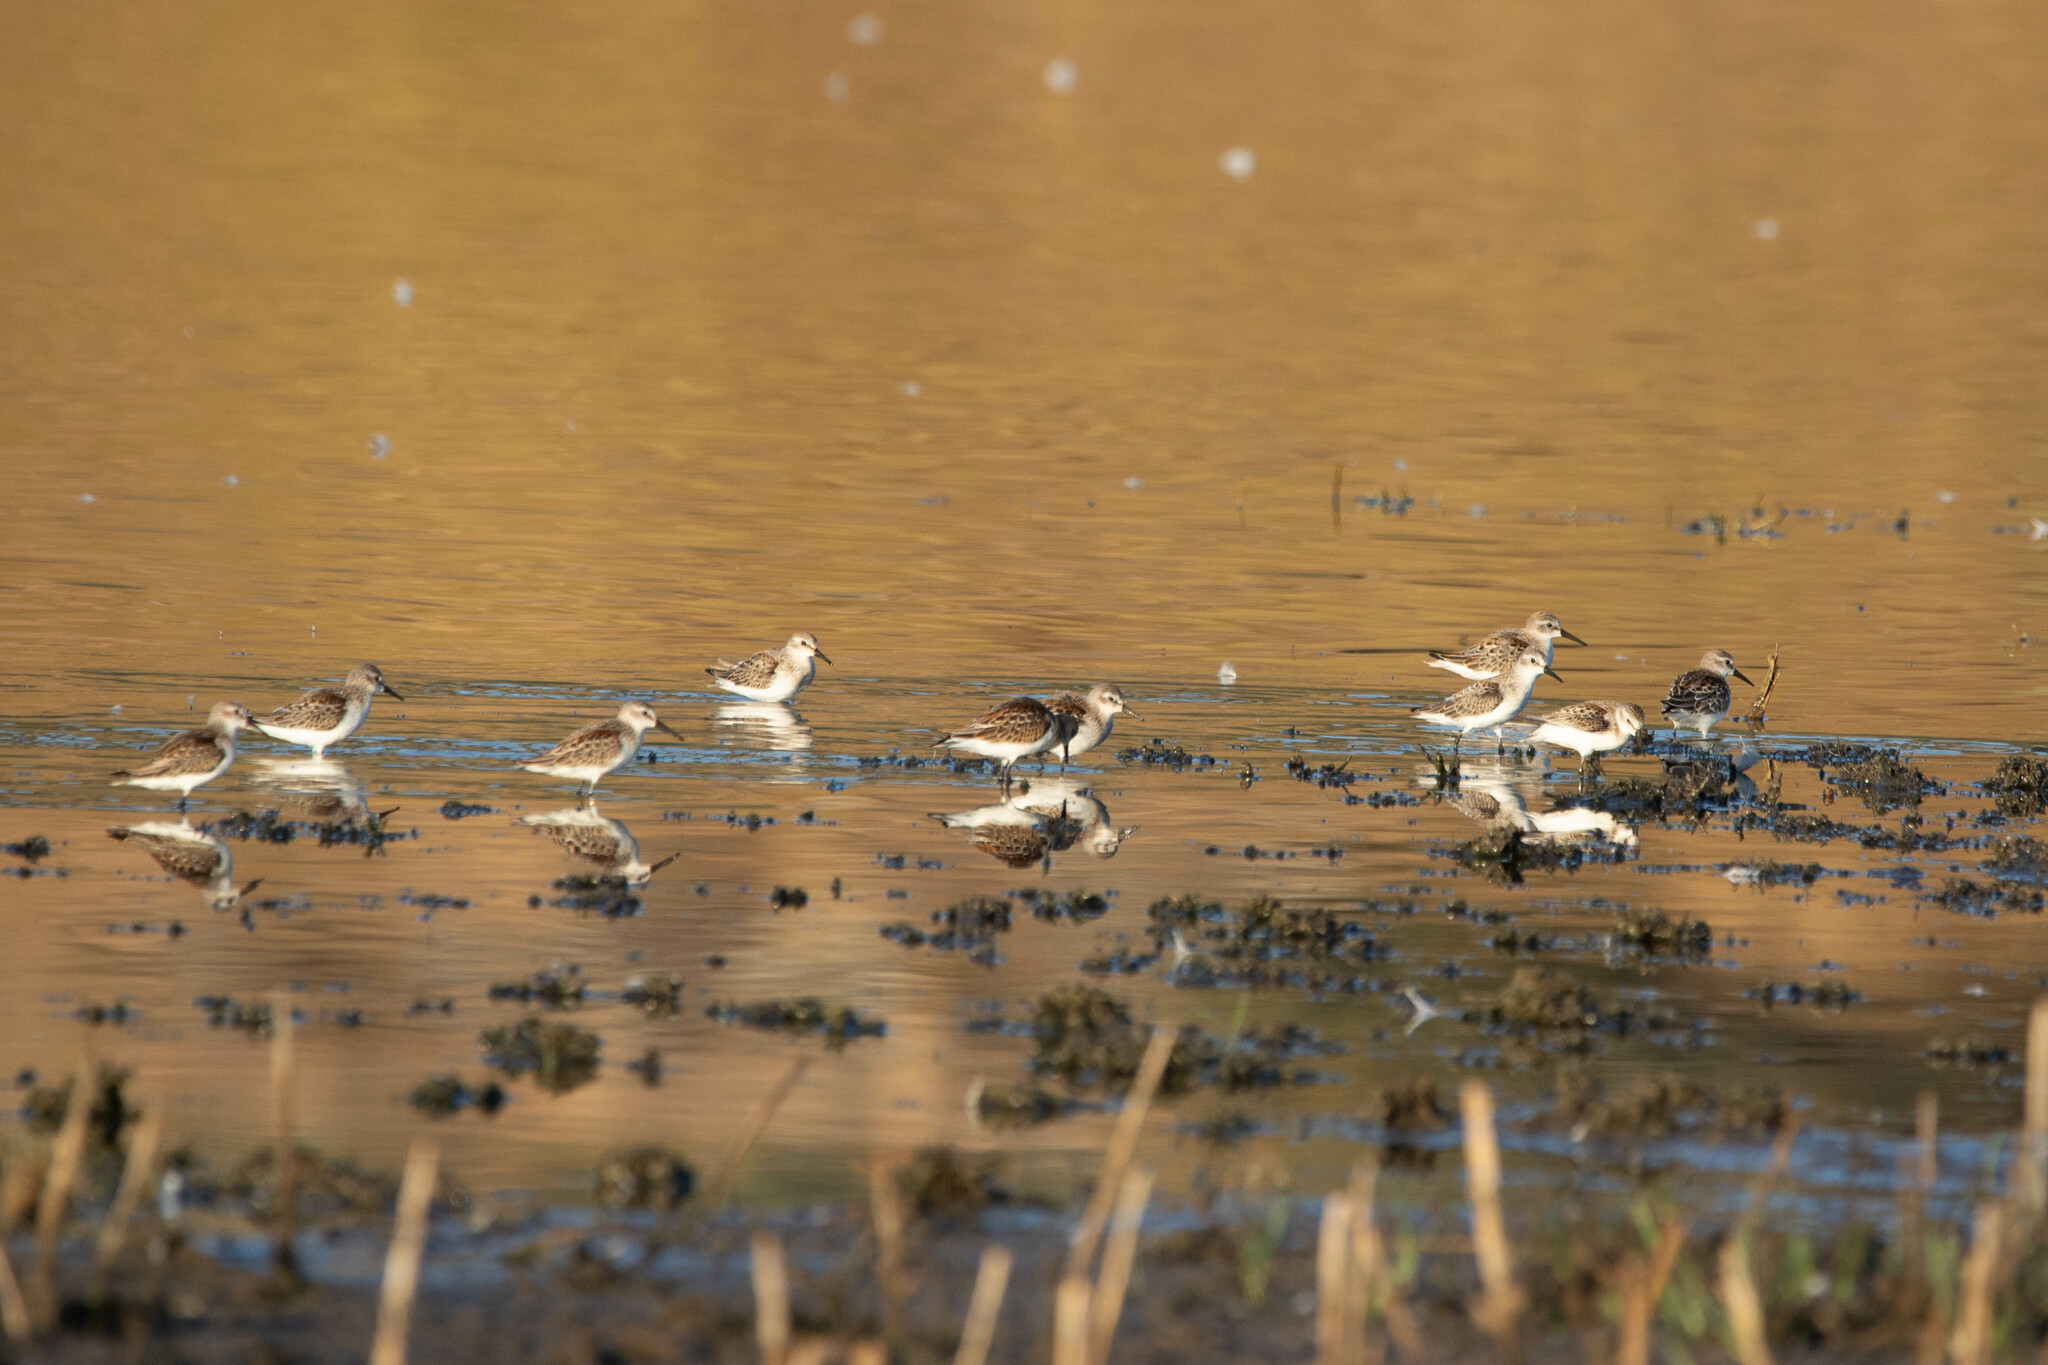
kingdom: Animalia
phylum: Chordata
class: Aves
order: Charadriiformes
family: Scolopacidae
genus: Calidris
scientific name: Calidris mauri
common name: Western sandpiper
